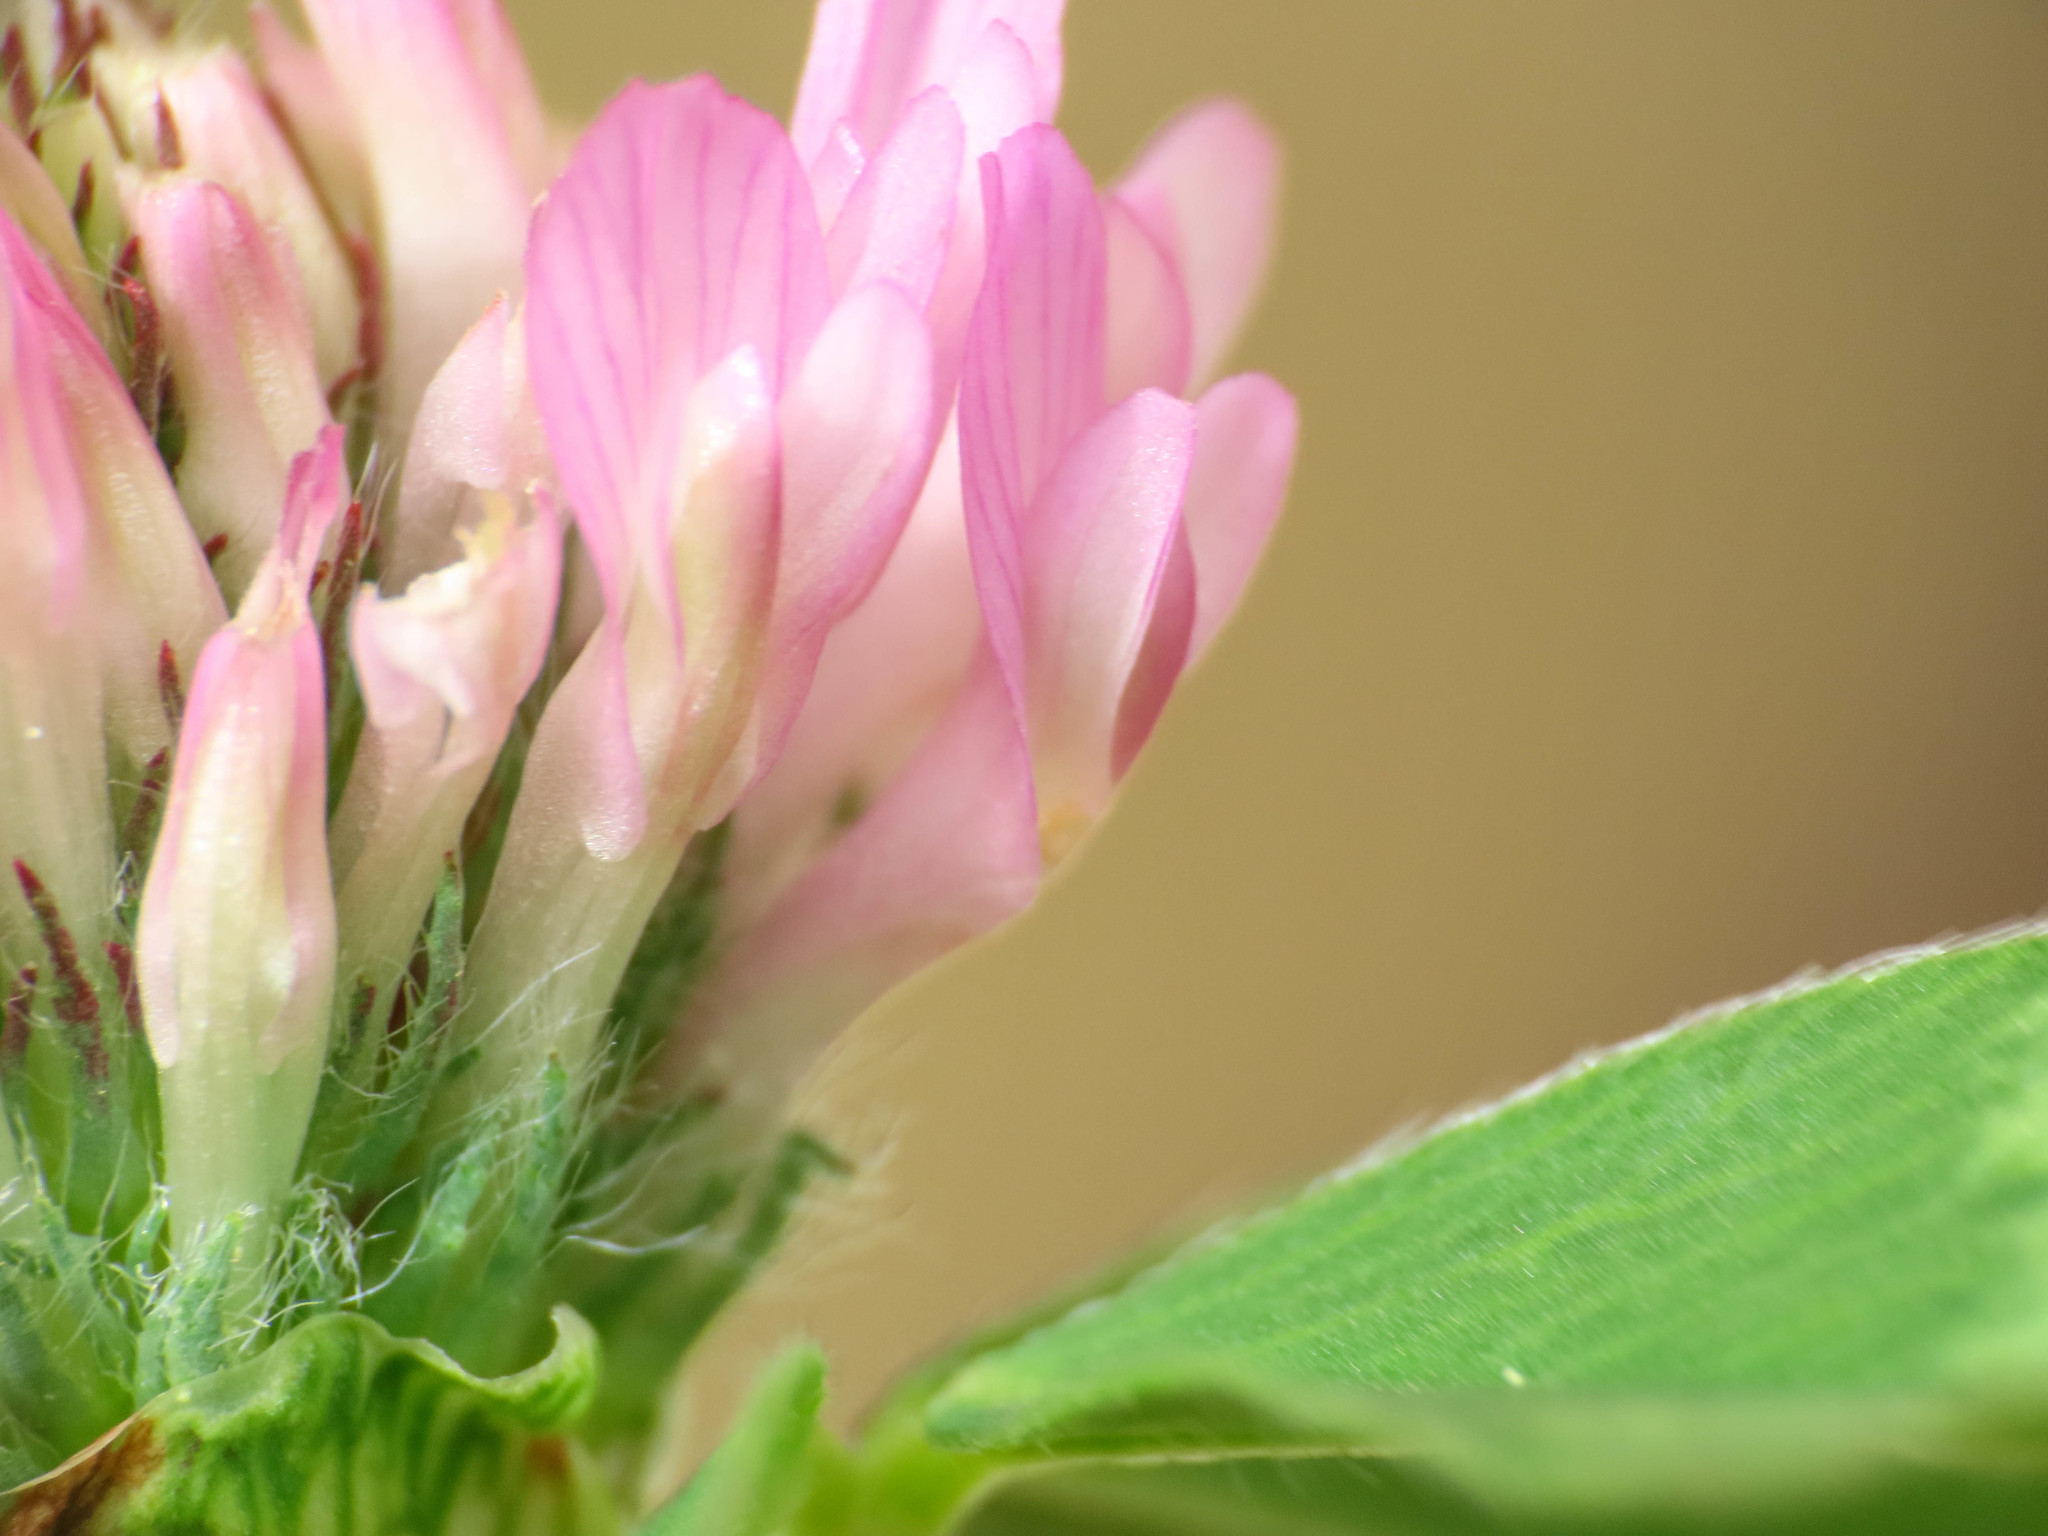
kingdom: Plantae
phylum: Tracheophyta
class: Magnoliopsida
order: Fabales
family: Fabaceae
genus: Trifolium
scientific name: Trifolium pratense
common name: Red clover
